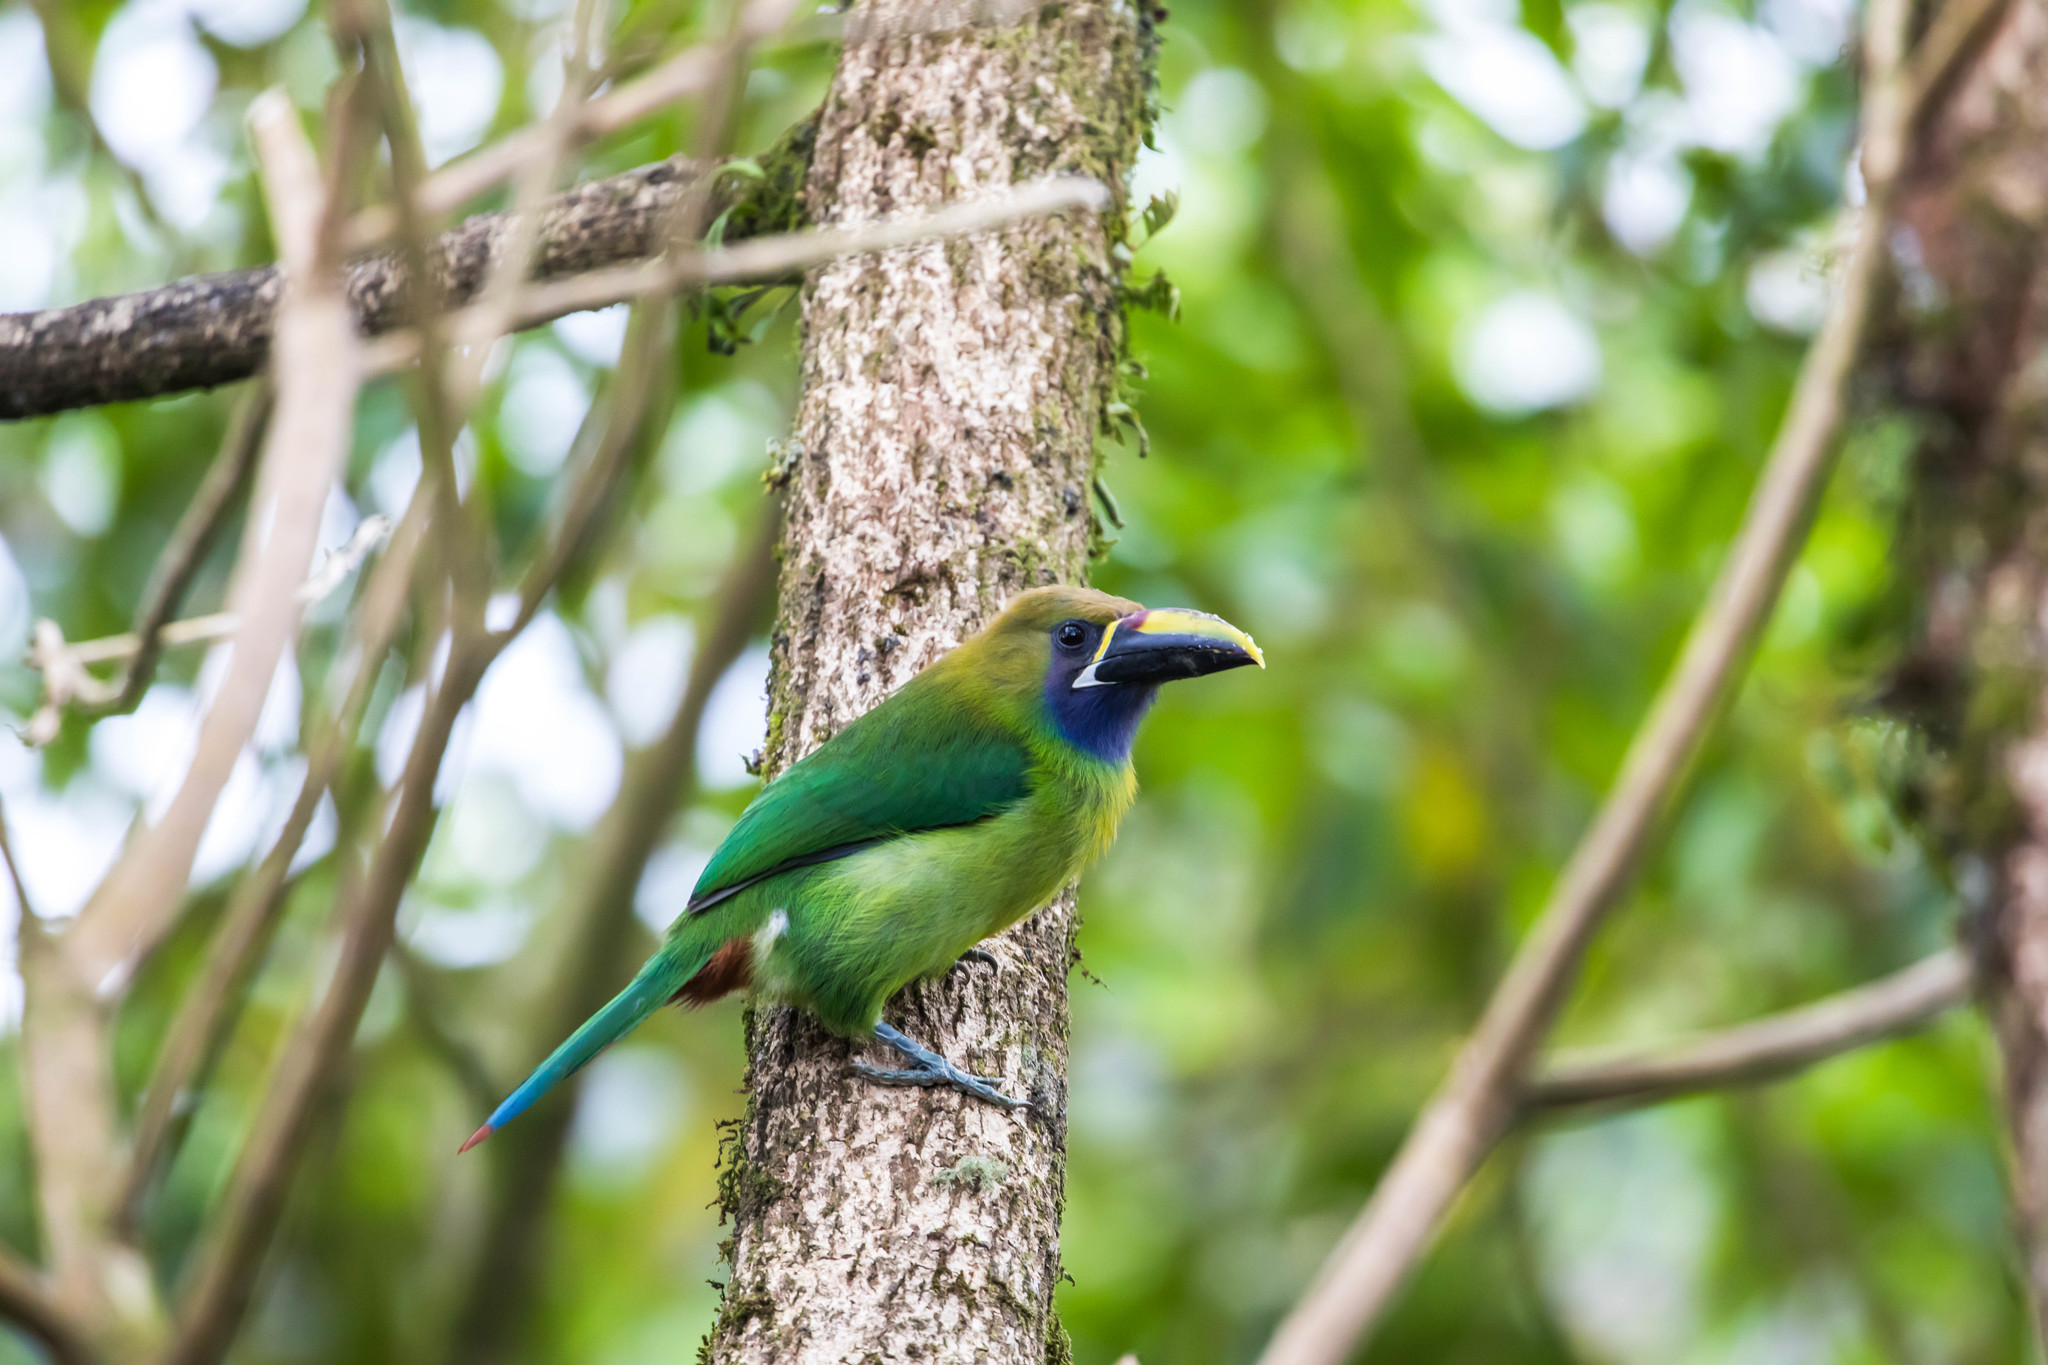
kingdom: Animalia
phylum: Chordata
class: Aves
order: Piciformes
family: Ramphastidae
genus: Aulacorhynchus
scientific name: Aulacorhynchus prasinus
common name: Emerald toucanet
